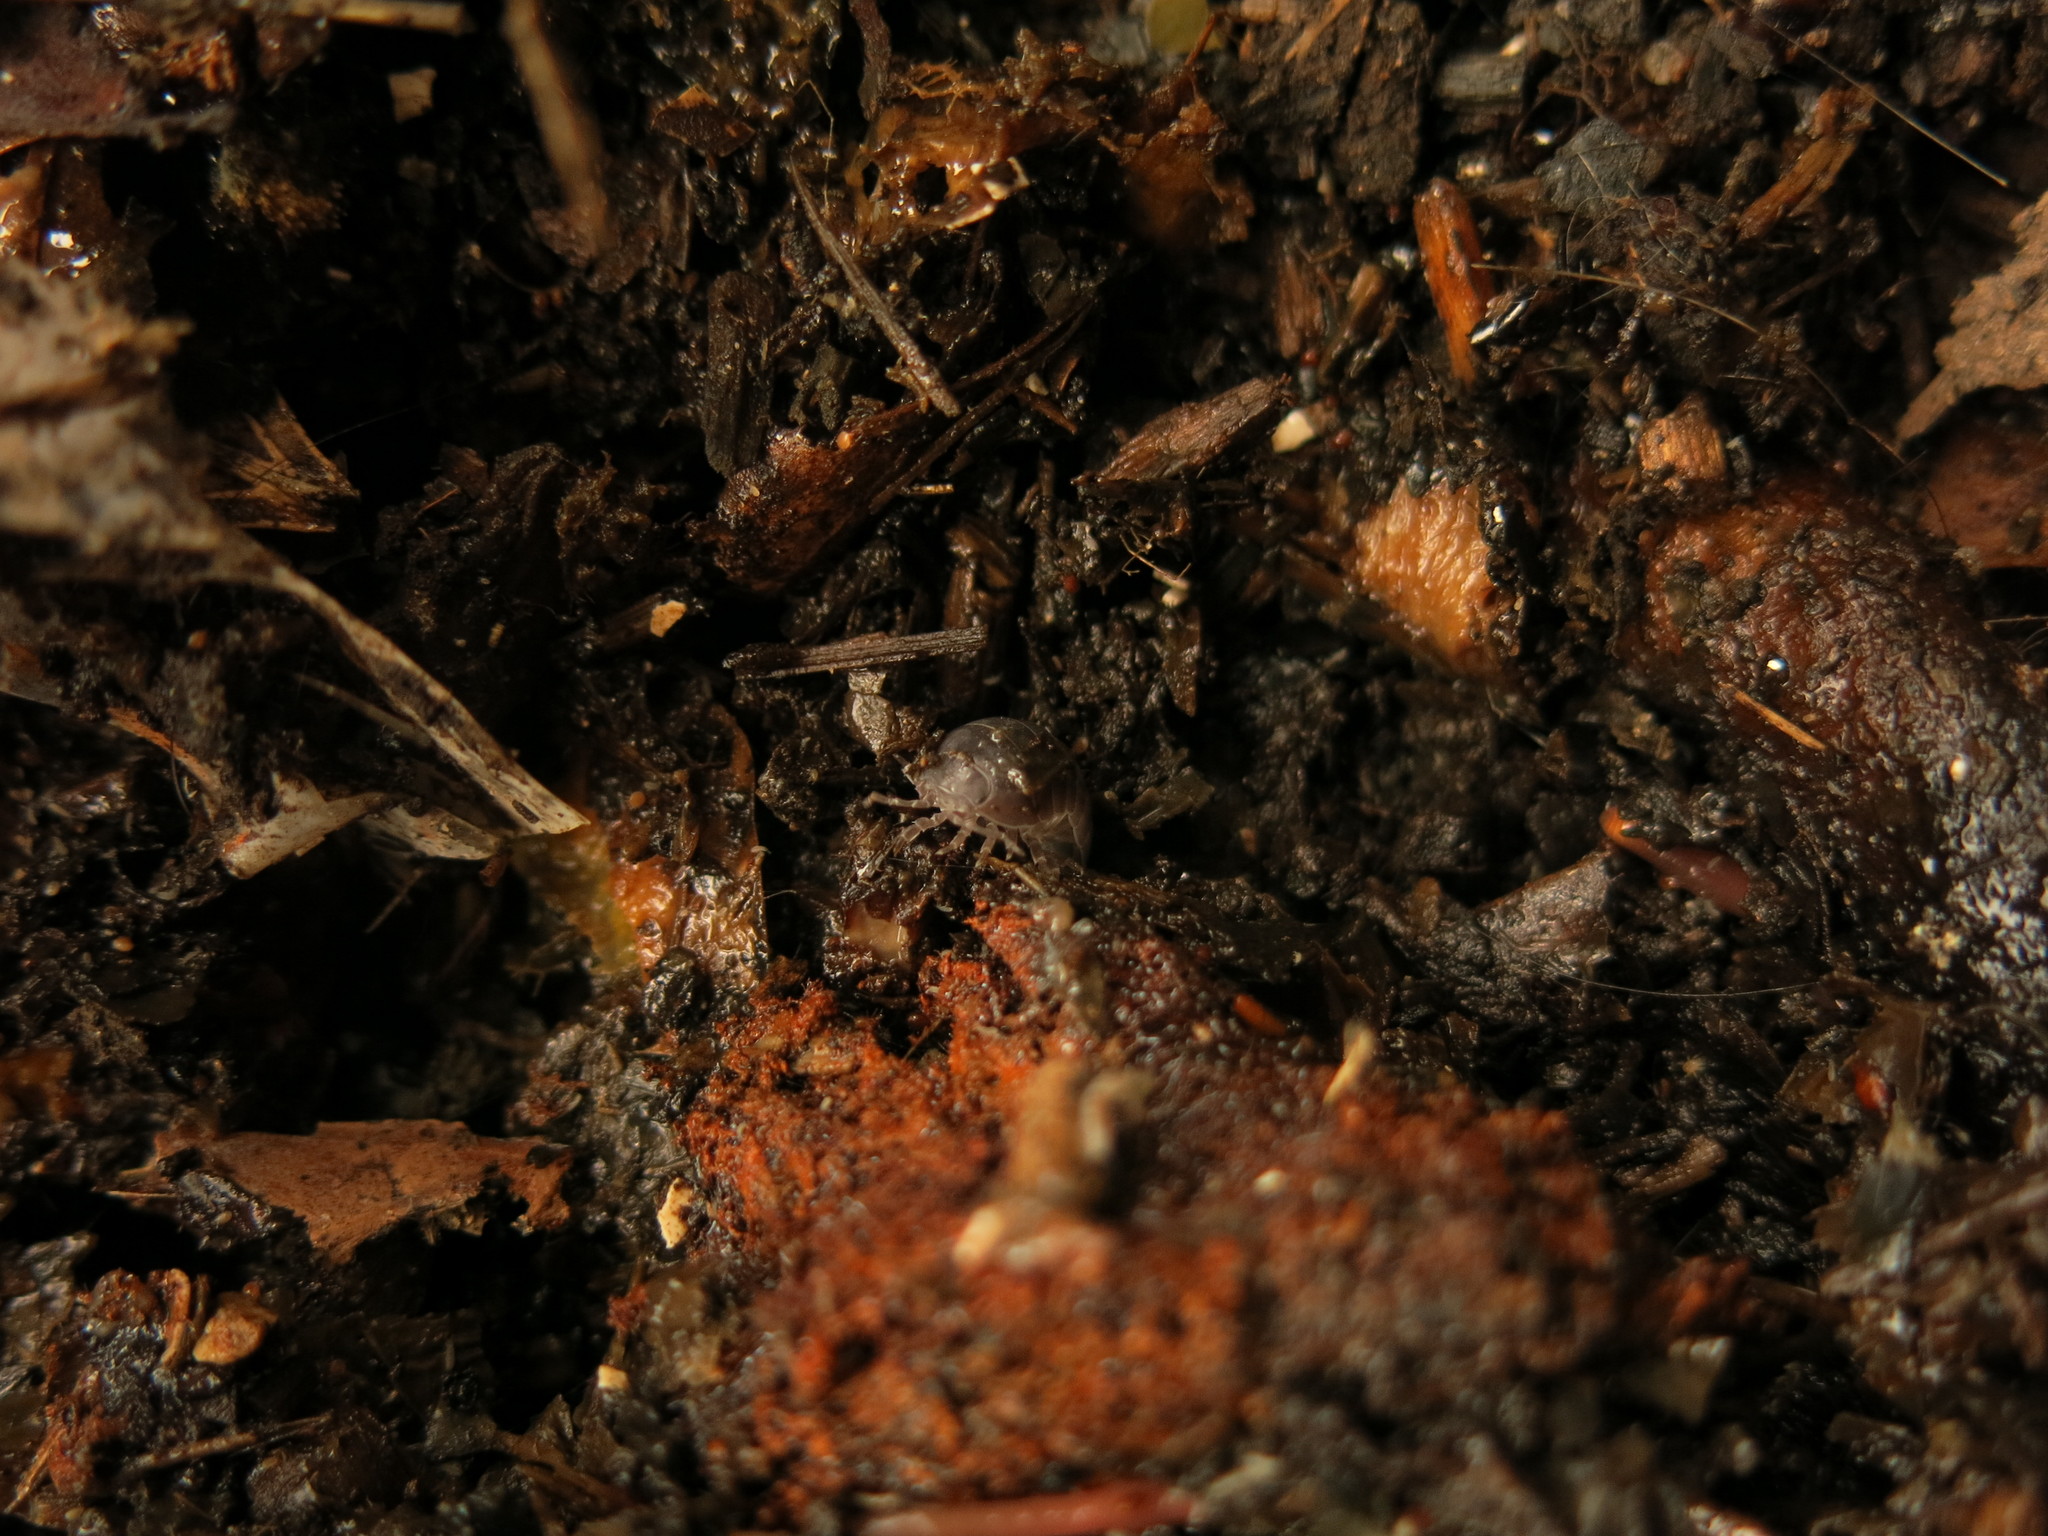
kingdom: Animalia
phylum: Arthropoda
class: Malacostraca
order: Isopoda
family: Armadillidiidae
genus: Armadillidium
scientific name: Armadillidium vulgare
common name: Common pill woodlouse
